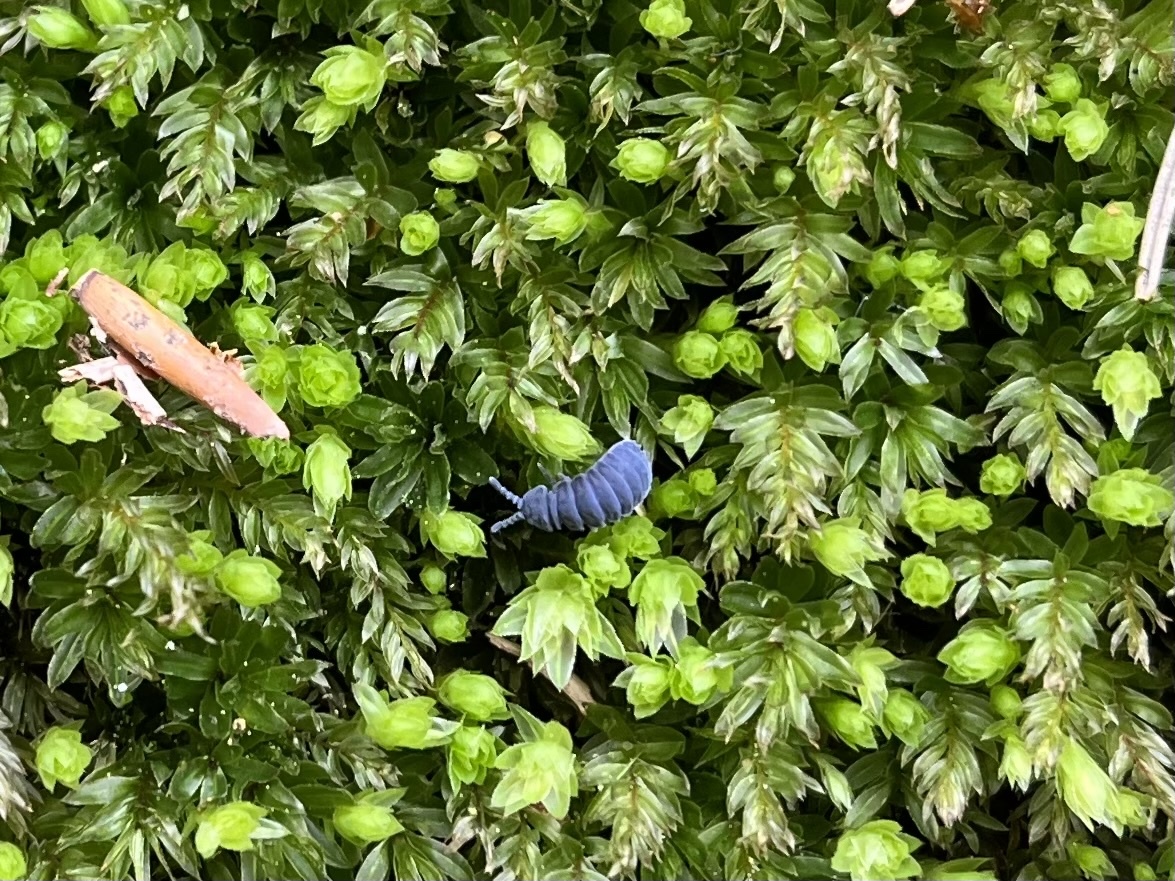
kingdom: Animalia
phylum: Arthropoda
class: Collembola
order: Poduromorpha
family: Onychiuridae
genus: Tetrodontophora
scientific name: Tetrodontophora bielanensis
